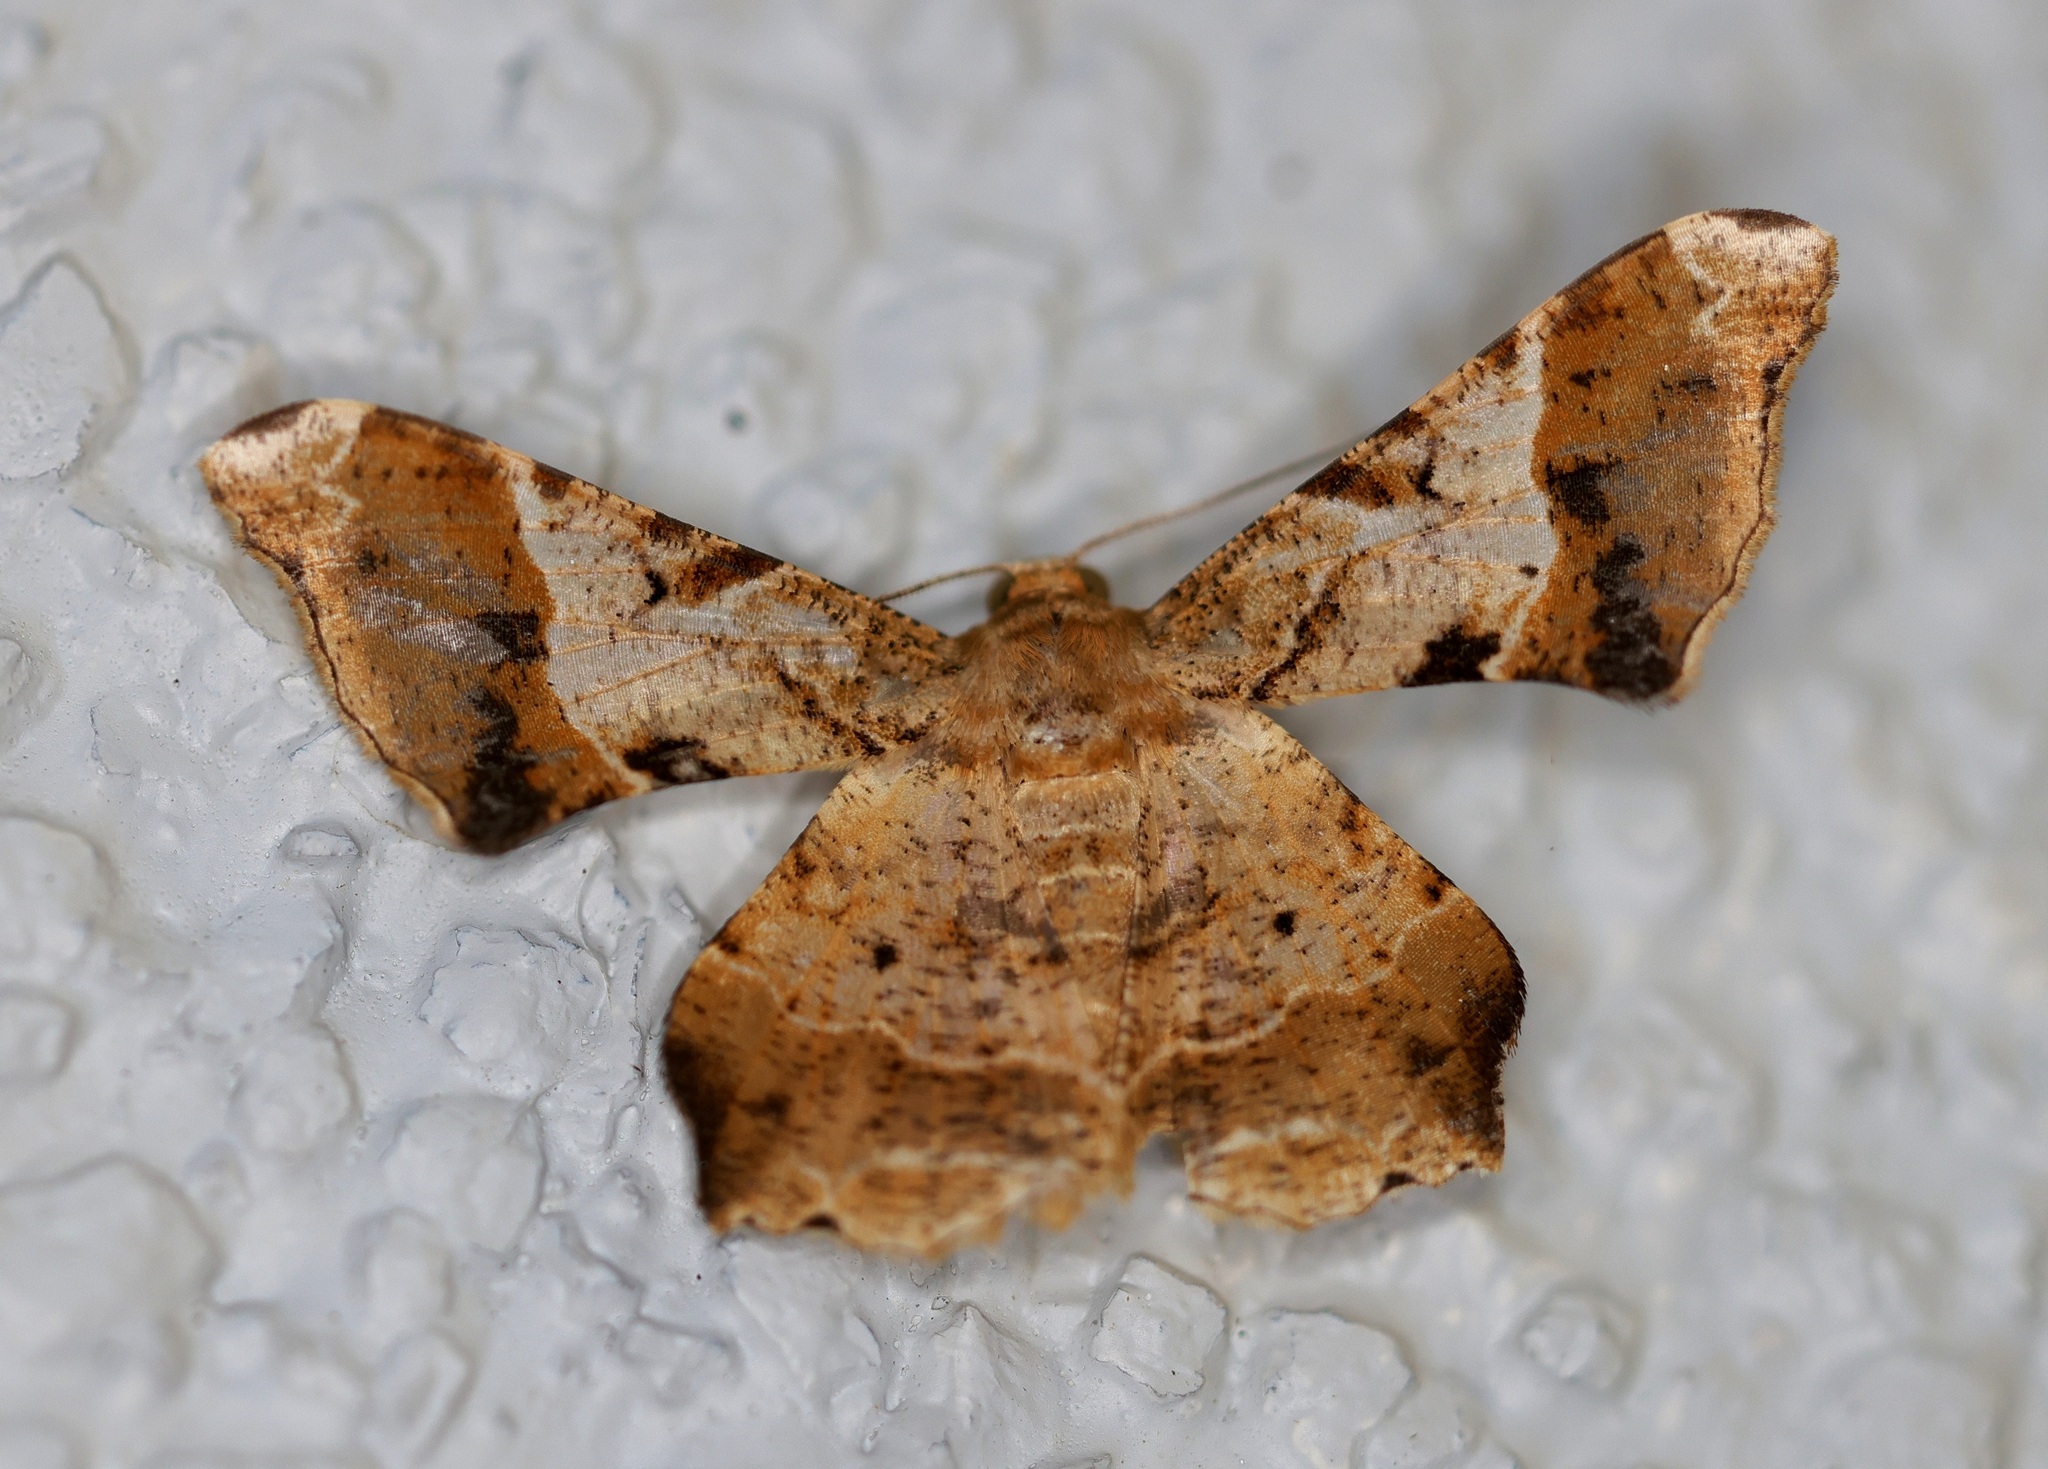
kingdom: Animalia
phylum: Arthropoda
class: Insecta
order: Lepidoptera
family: Geometridae
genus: Krananda
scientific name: Krananda oliveomarginata
